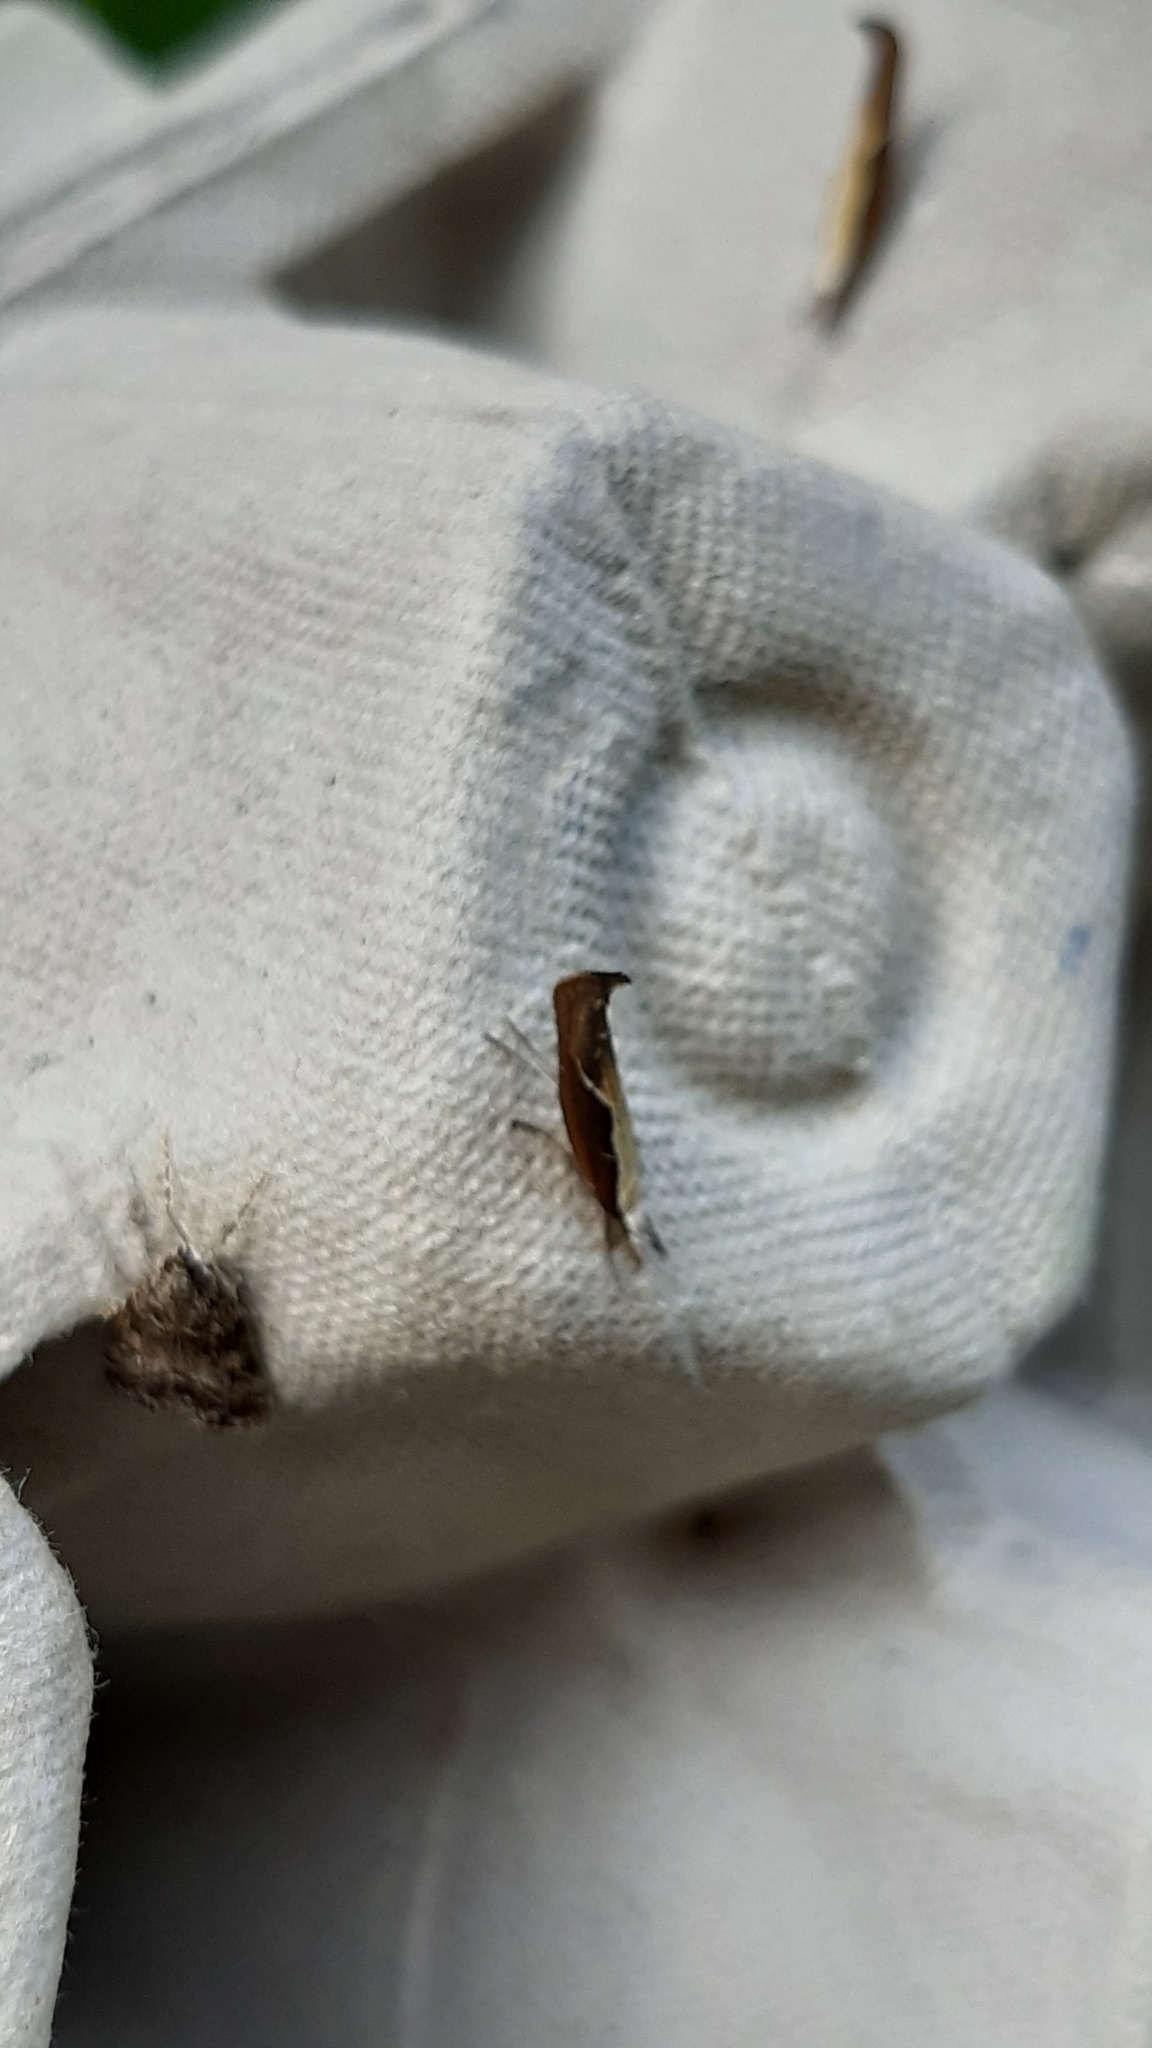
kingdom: Animalia
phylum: Arthropoda
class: Insecta
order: Lepidoptera
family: Ypsolophidae
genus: Ypsolopha
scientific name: Ypsolopha dentella
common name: Honeysuckle moth
